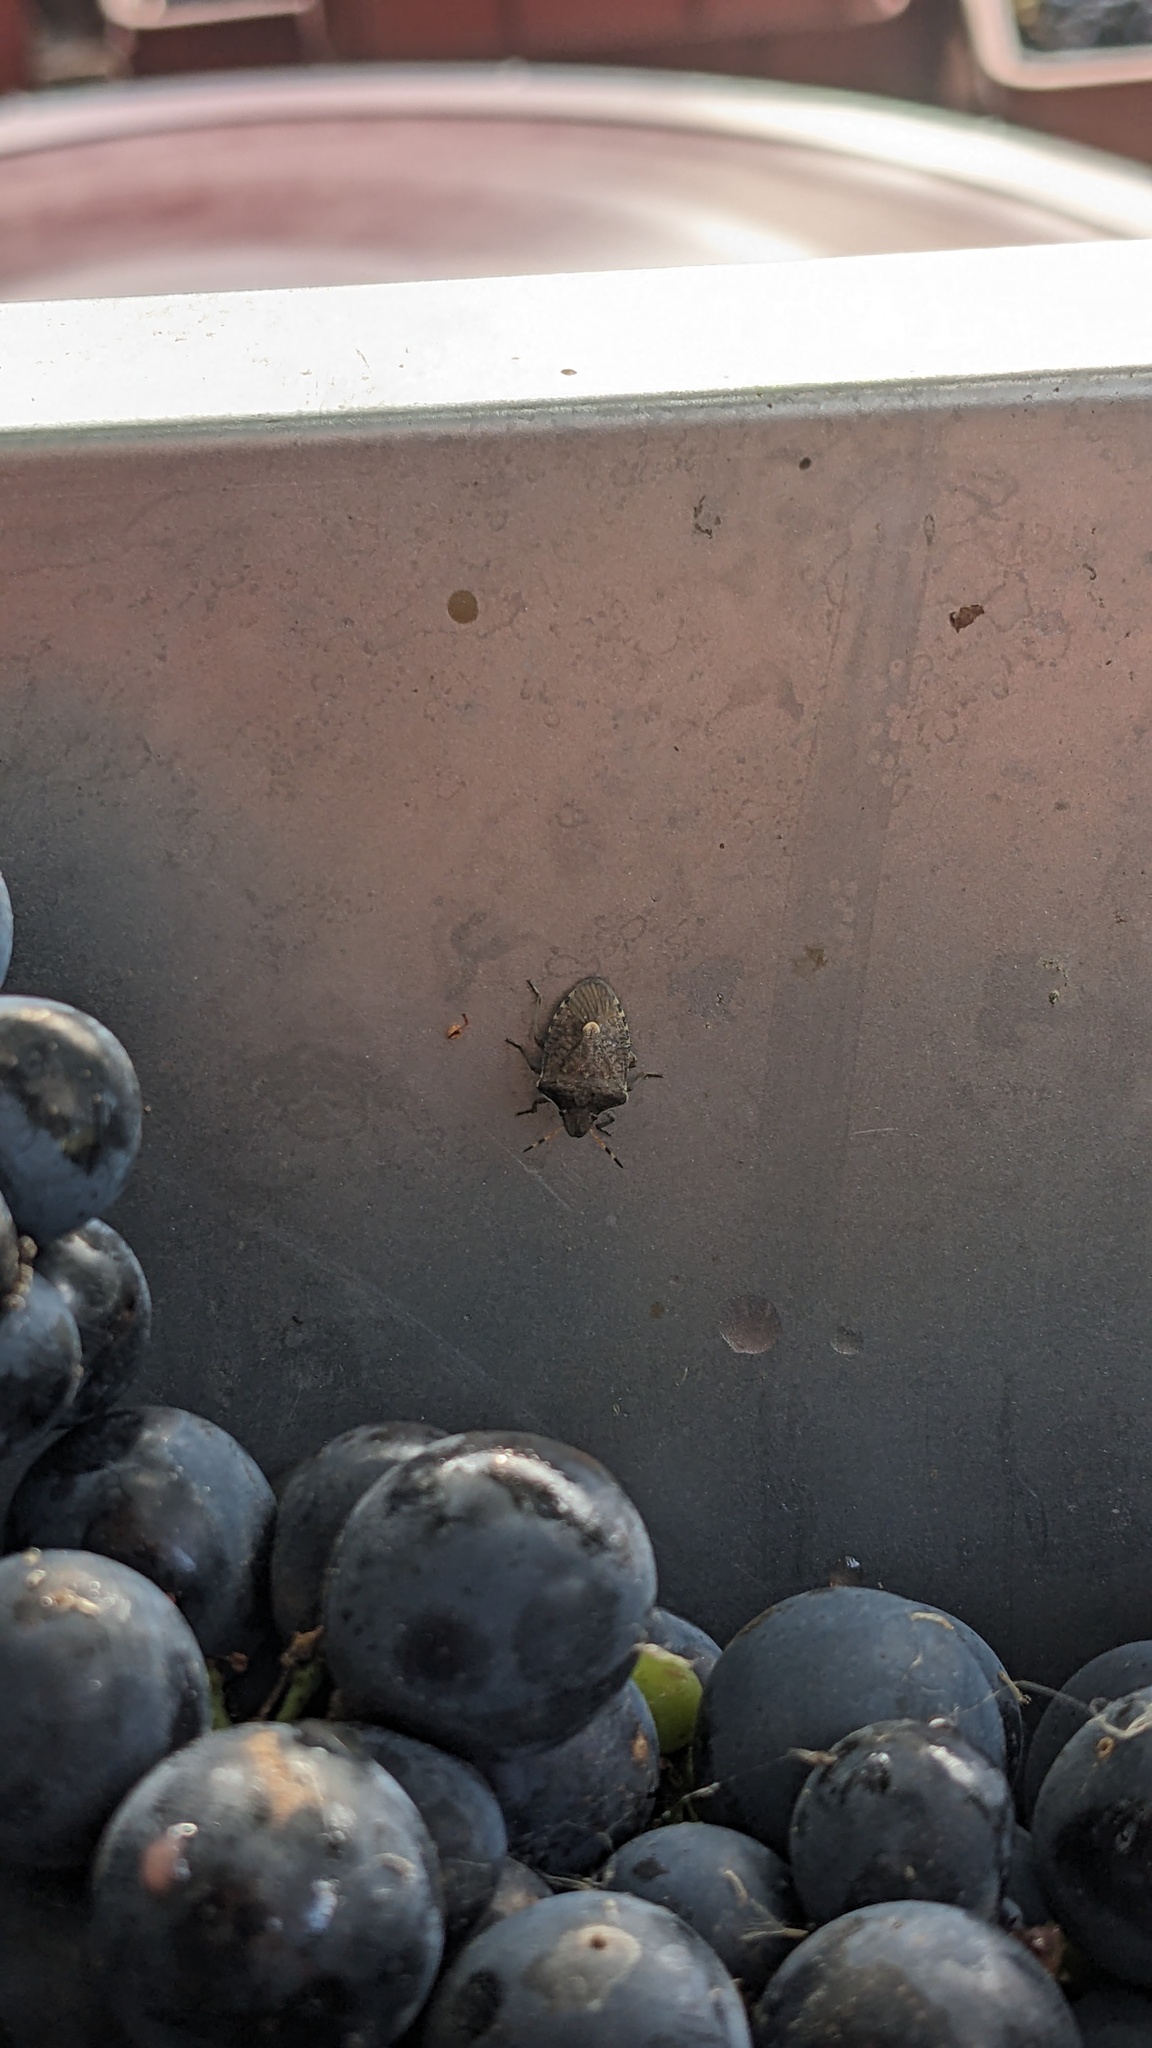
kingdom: Animalia
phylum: Arthropoda
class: Insecta
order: Hemiptera
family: Pentatomidae
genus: Holcostethus
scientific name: Holcostethus strictus
